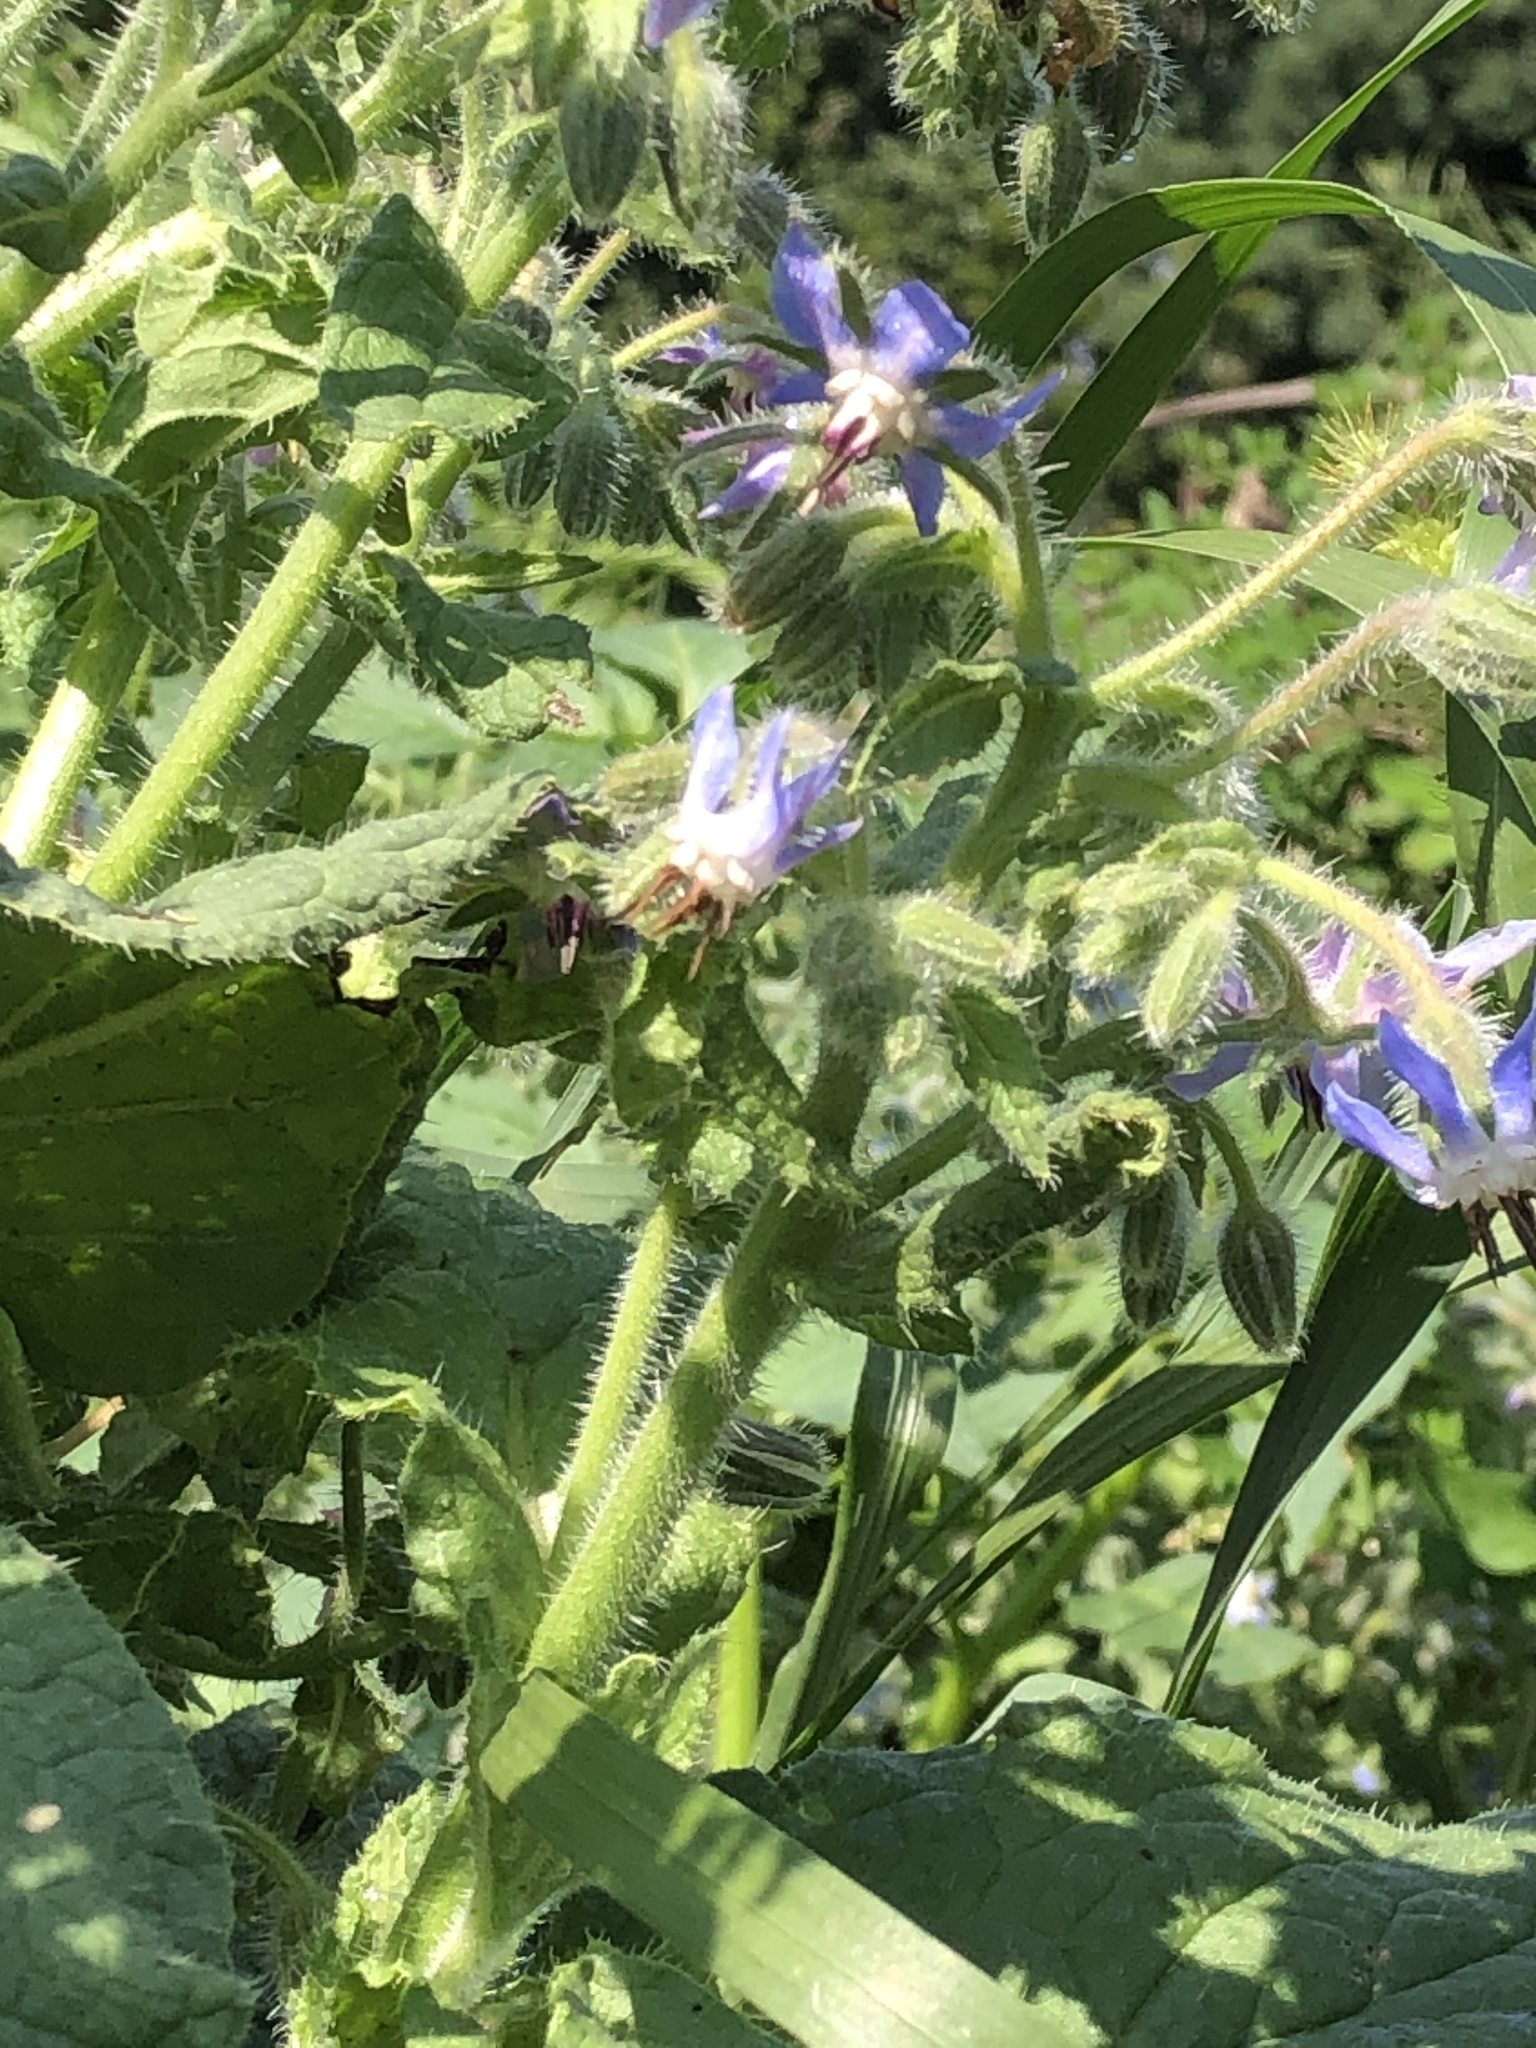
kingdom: Plantae
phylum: Tracheophyta
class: Magnoliopsida
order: Boraginales
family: Boraginaceae
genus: Borago
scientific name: Borago officinalis
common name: Borage
